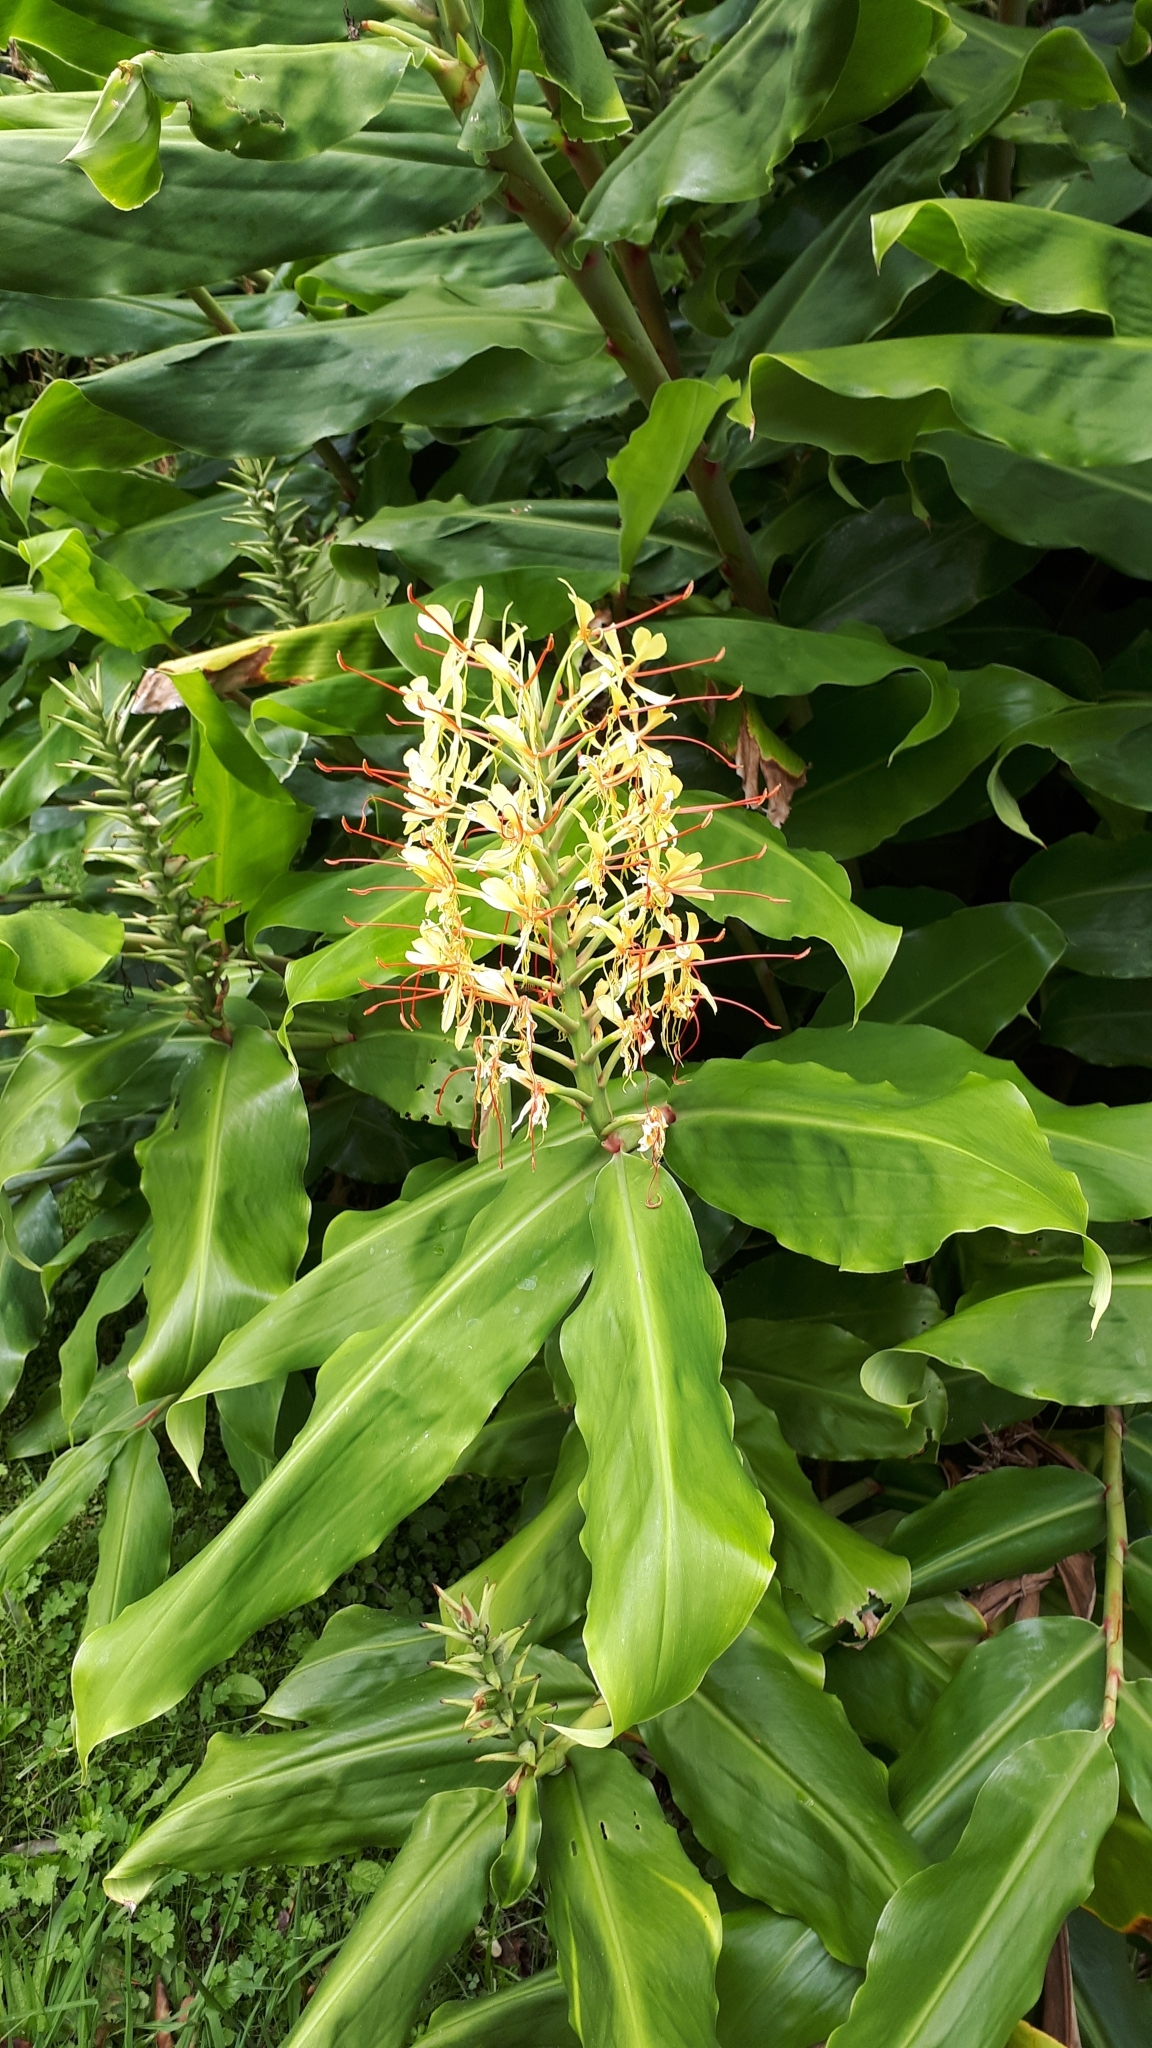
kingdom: Plantae
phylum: Tracheophyta
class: Liliopsida
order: Zingiberales
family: Zingiberaceae
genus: Hedychium
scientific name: Hedychium gardnerianum
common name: Himalayan ginger
